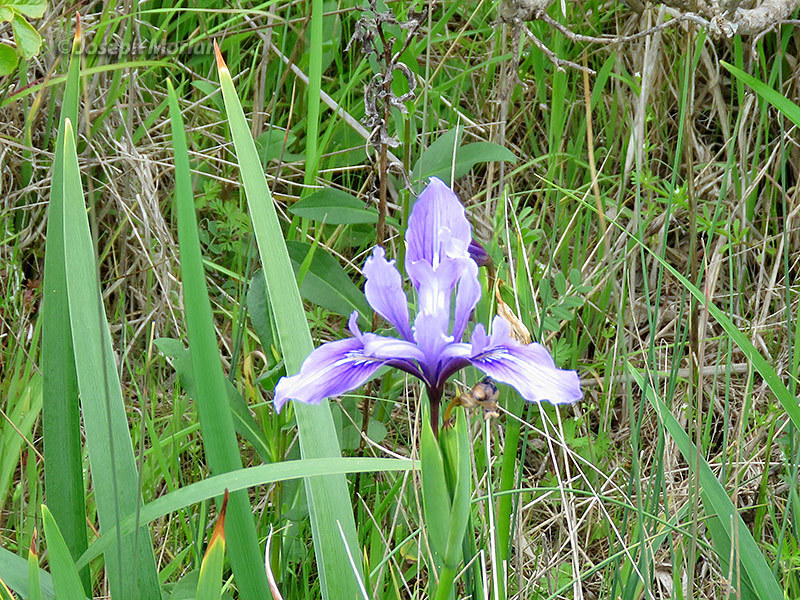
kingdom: Plantae
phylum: Tracheophyta
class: Liliopsida
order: Asparagales
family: Iridaceae
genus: Iris
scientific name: Iris douglasiana
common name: Marin iris
